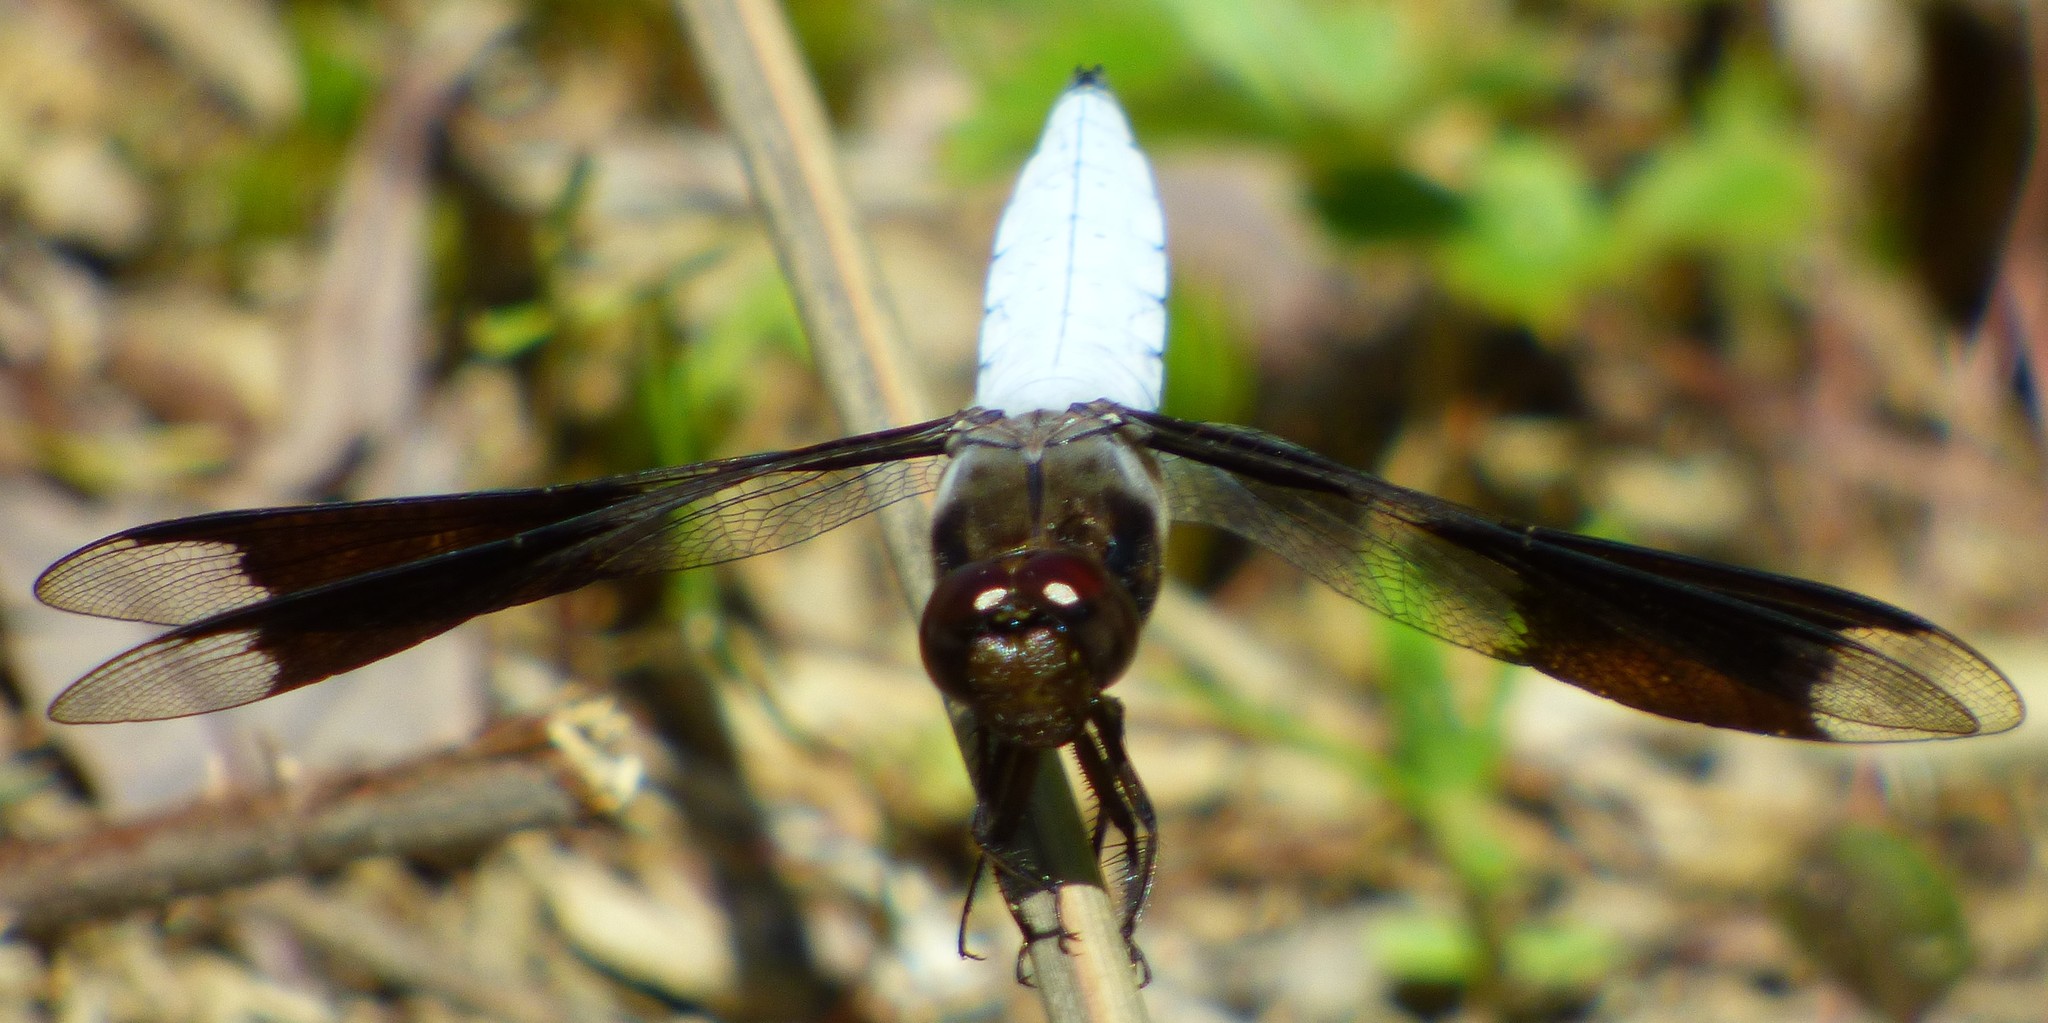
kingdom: Animalia
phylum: Arthropoda
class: Insecta
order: Odonata
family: Libellulidae
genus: Plathemis
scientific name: Plathemis lydia
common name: Common whitetail
